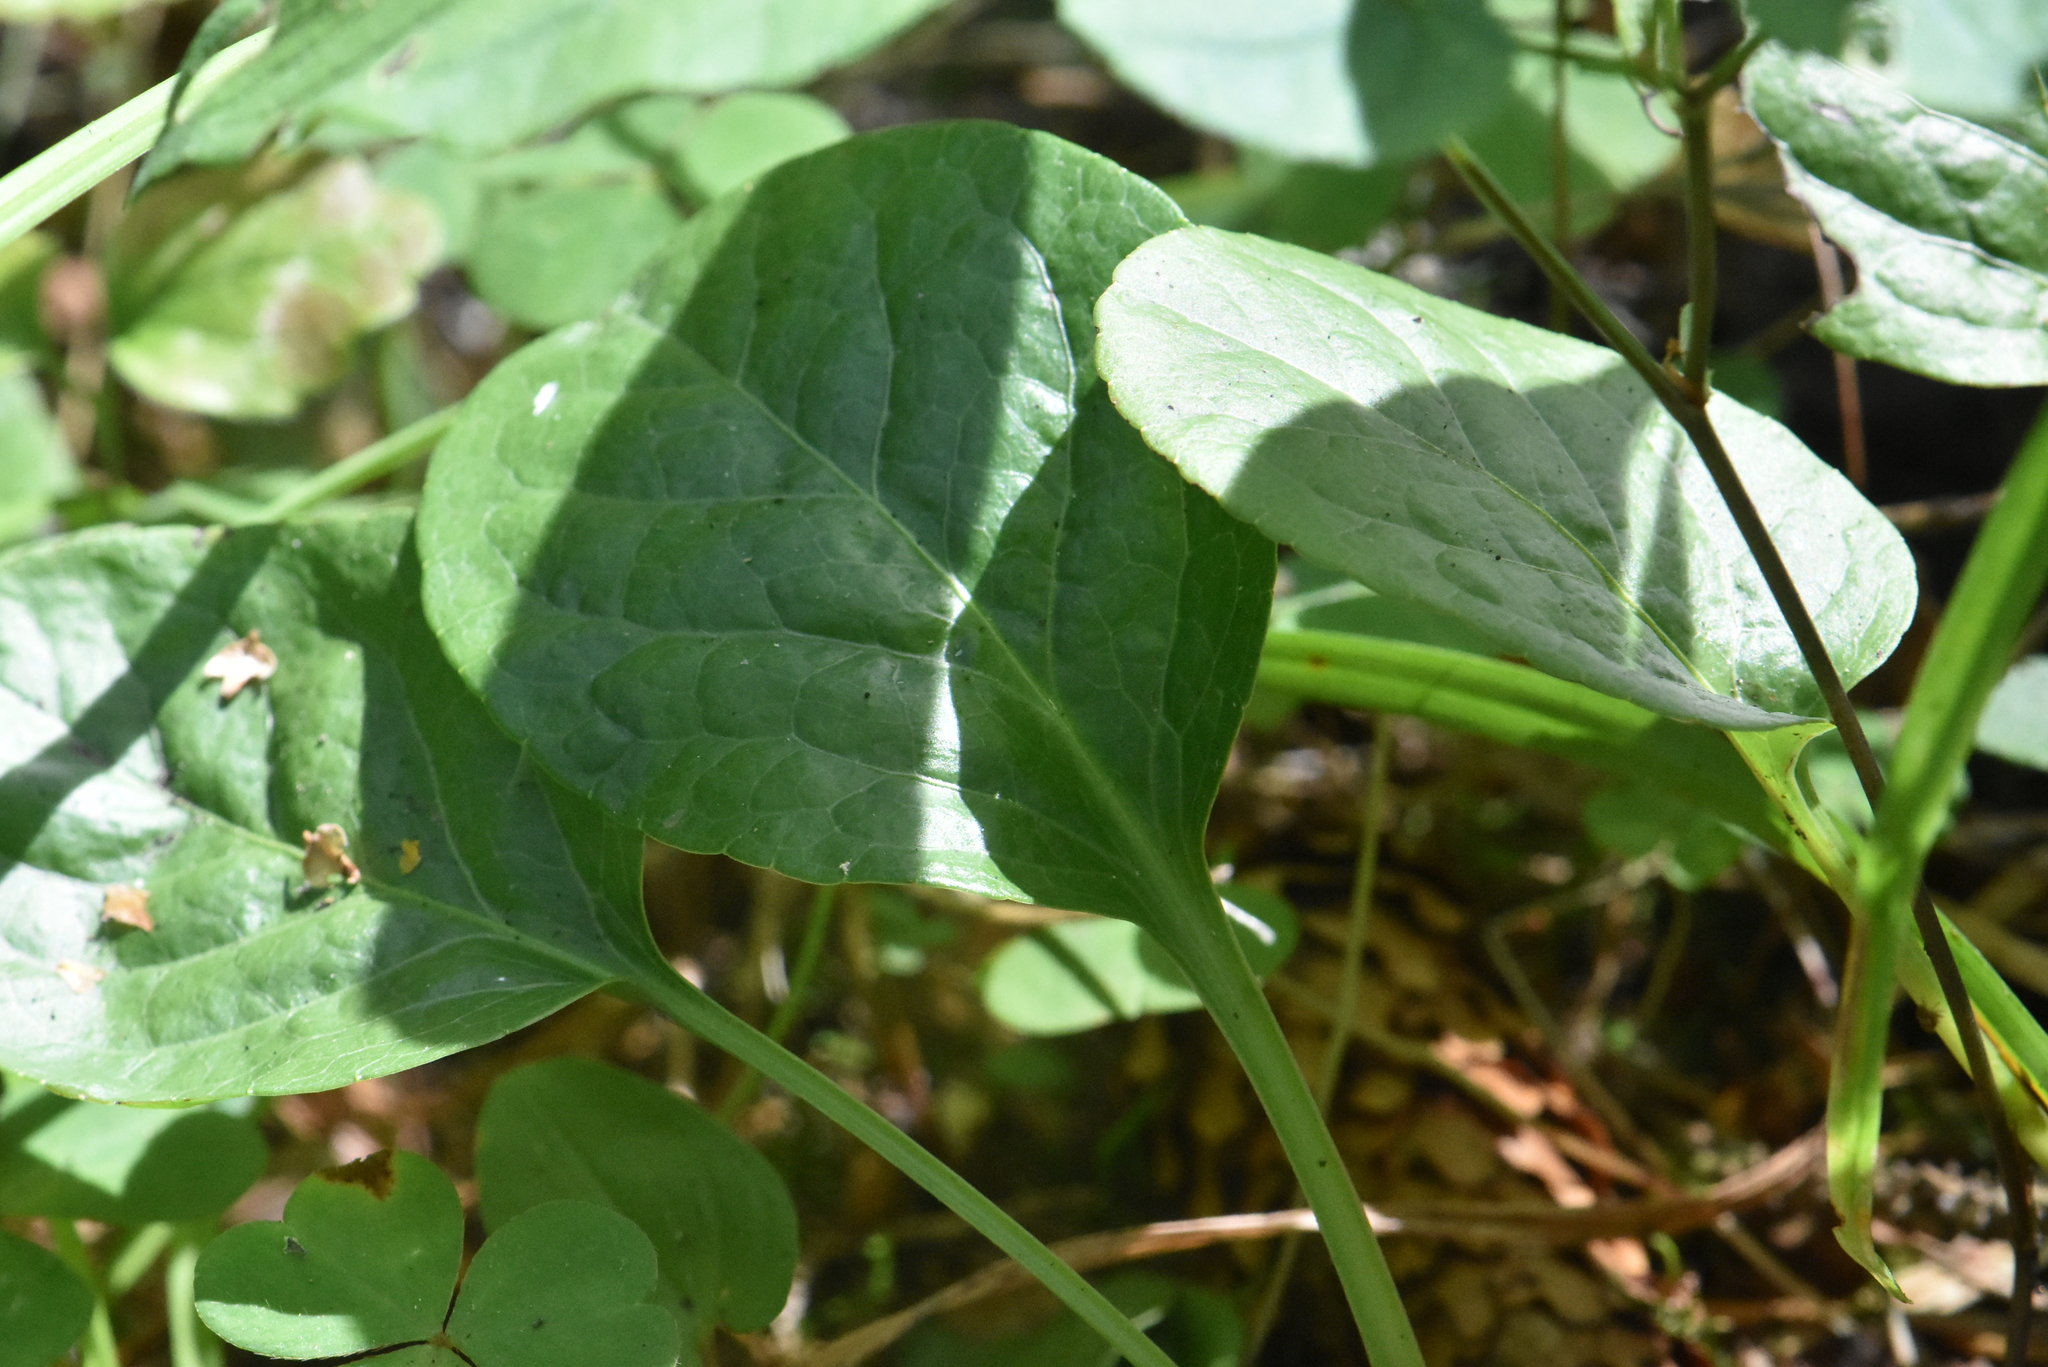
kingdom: Plantae
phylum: Tracheophyta
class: Magnoliopsida
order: Ericales
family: Ericaceae
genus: Pyrola
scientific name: Pyrola rotundifolia
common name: Round-leaved wintergreen
